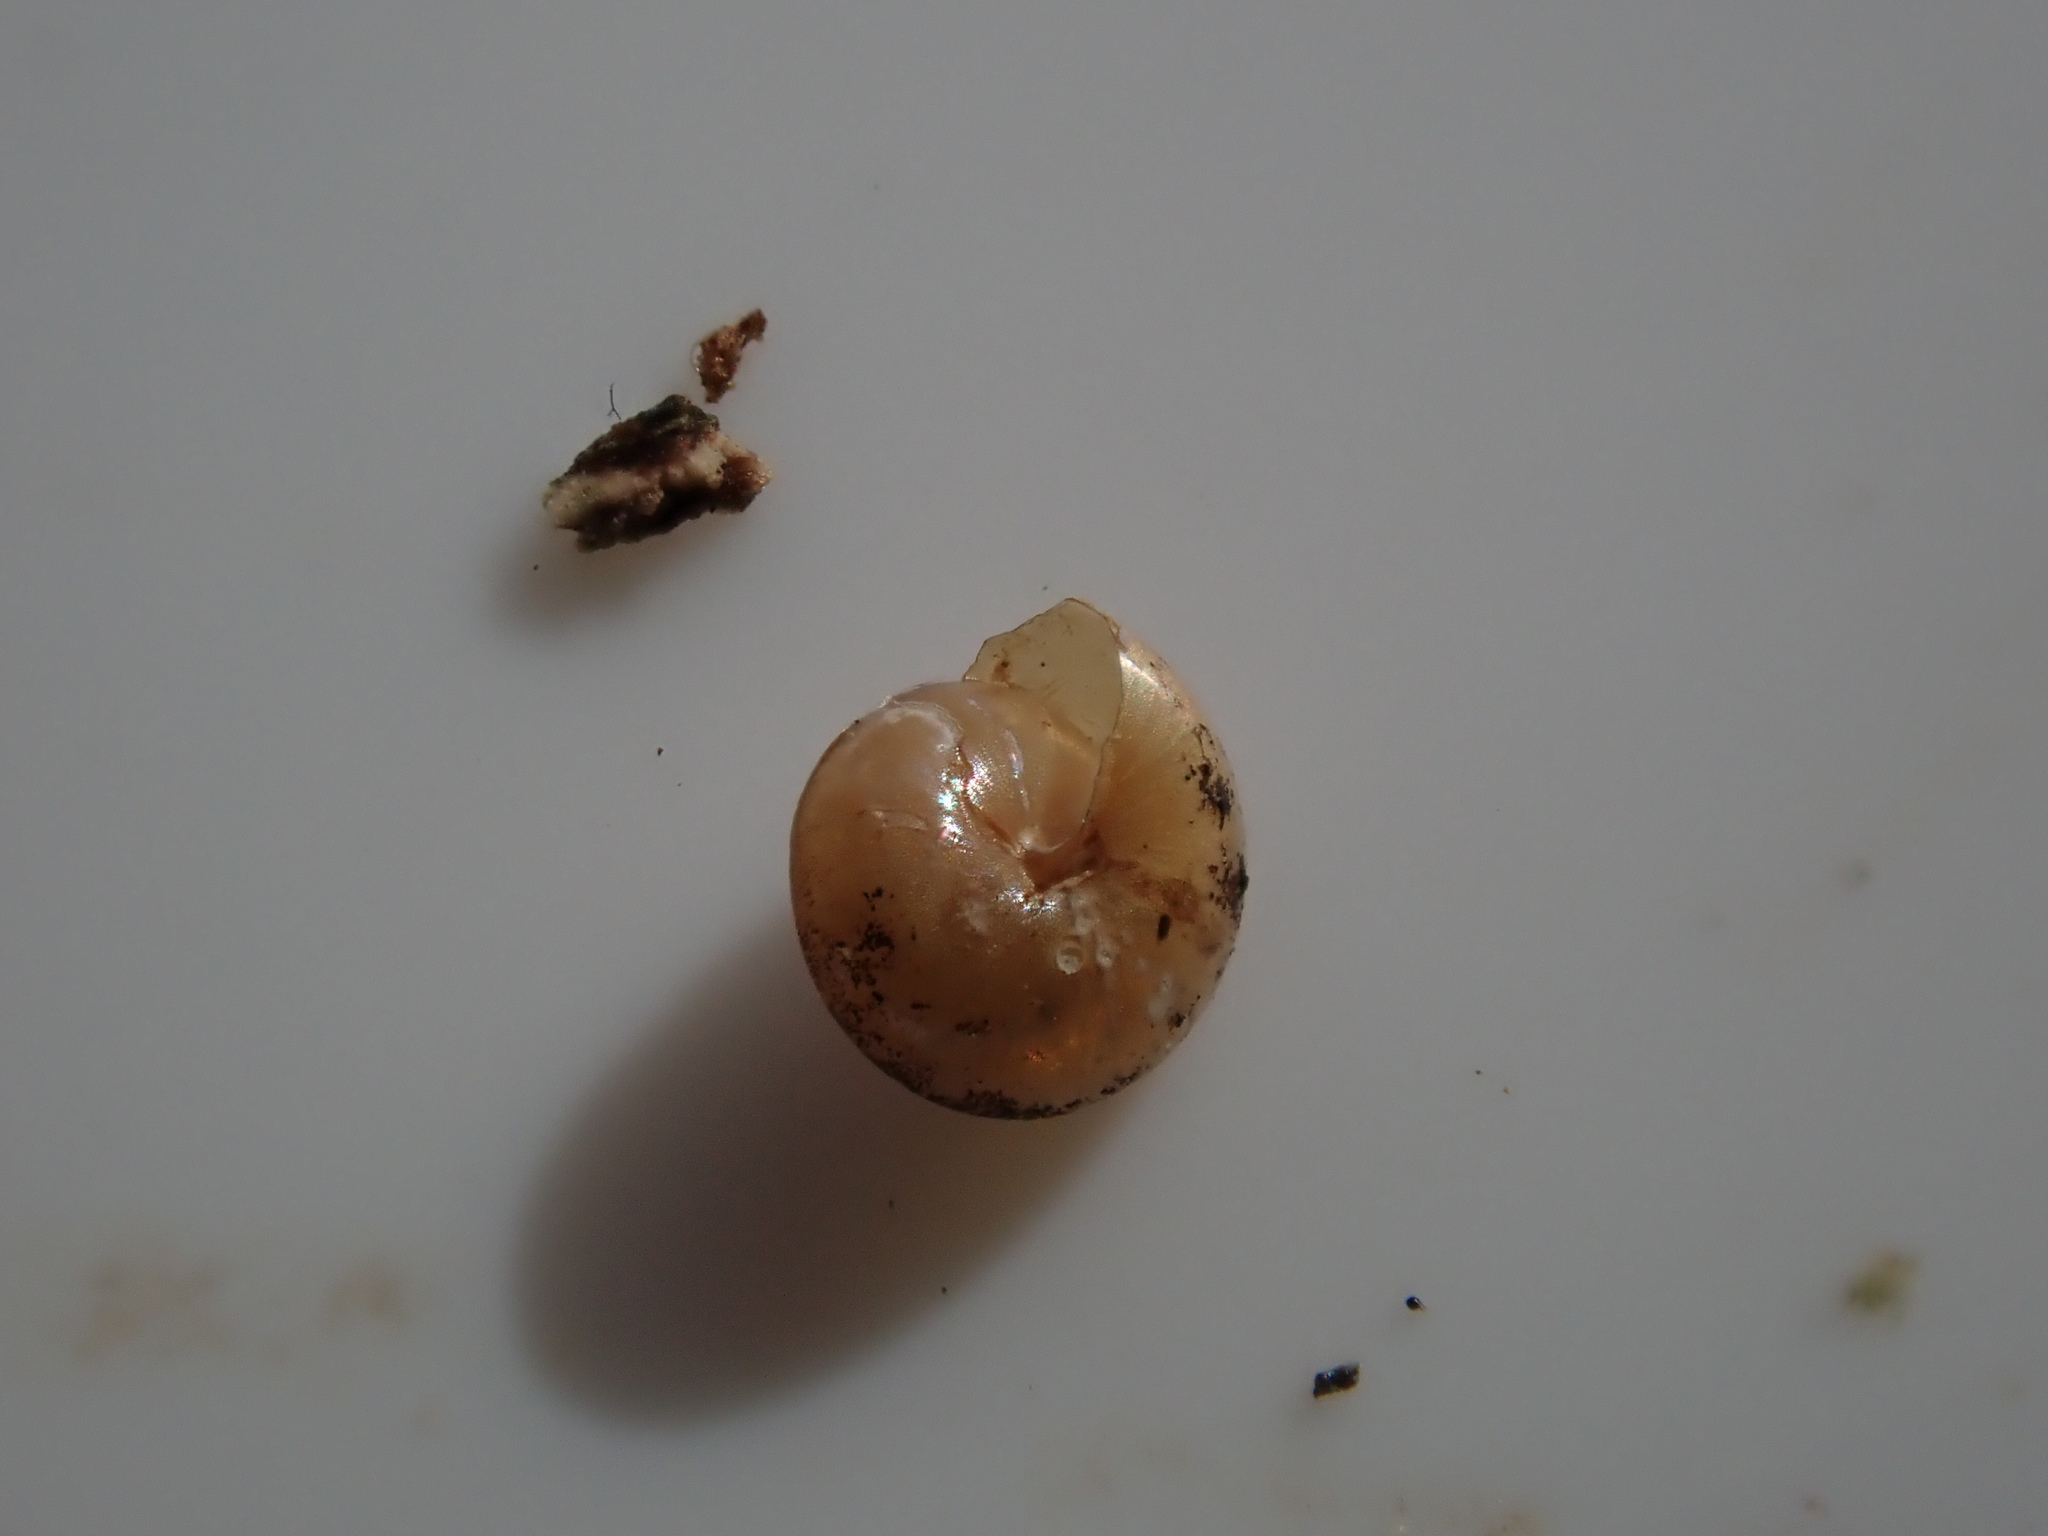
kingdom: Animalia
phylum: Mollusca
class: Gastropoda
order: Stylommatophora
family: Euconulidae
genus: Euconulus
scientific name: Euconulus fulvus
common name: Tawny glass snail
